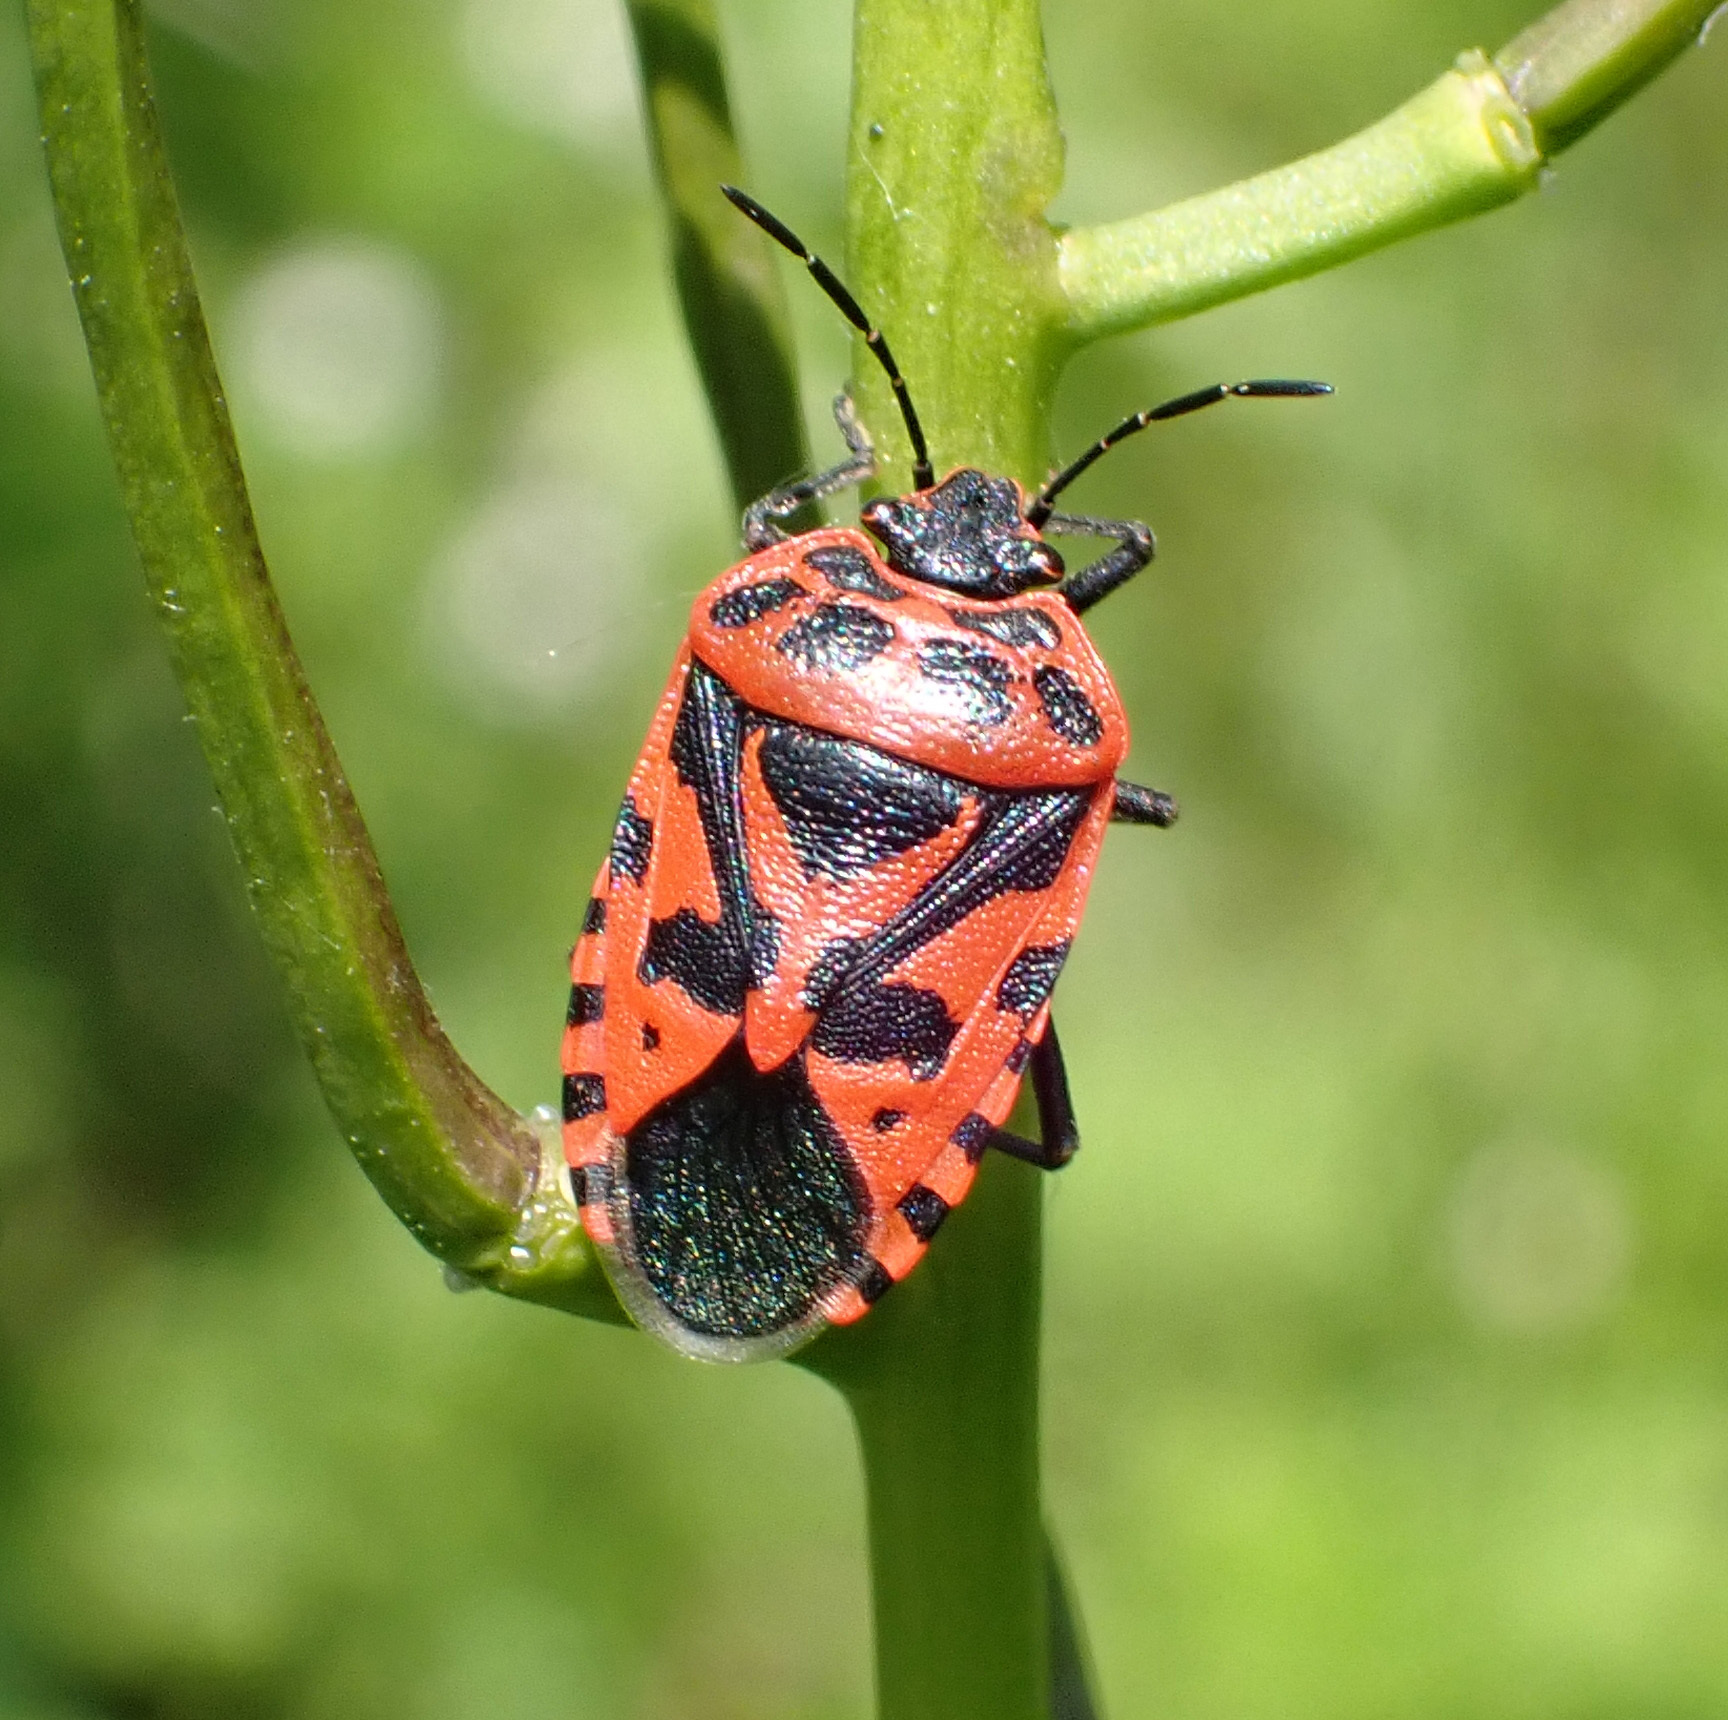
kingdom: Animalia
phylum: Arthropoda
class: Insecta
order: Hemiptera
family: Pentatomidae
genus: Eurydema
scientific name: Eurydema ventralis
